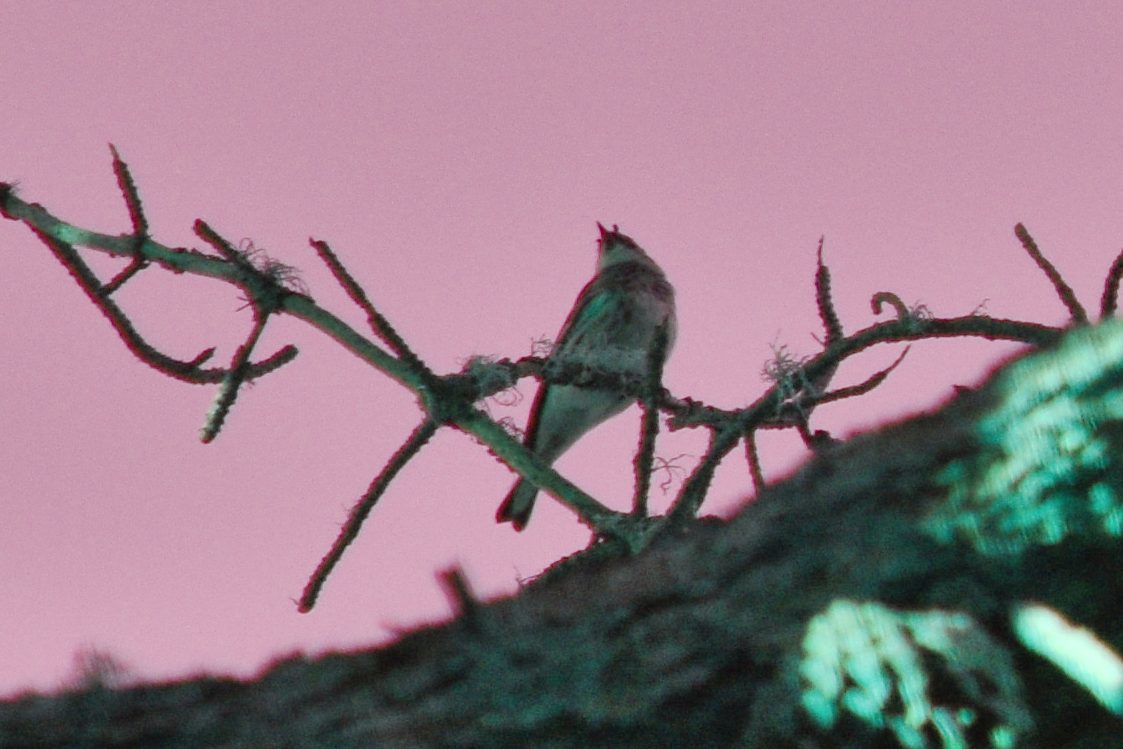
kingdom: Animalia
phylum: Chordata
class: Aves
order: Passeriformes
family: Parulidae
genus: Setophaga
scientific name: Setophaga coronata
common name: Myrtle warbler
